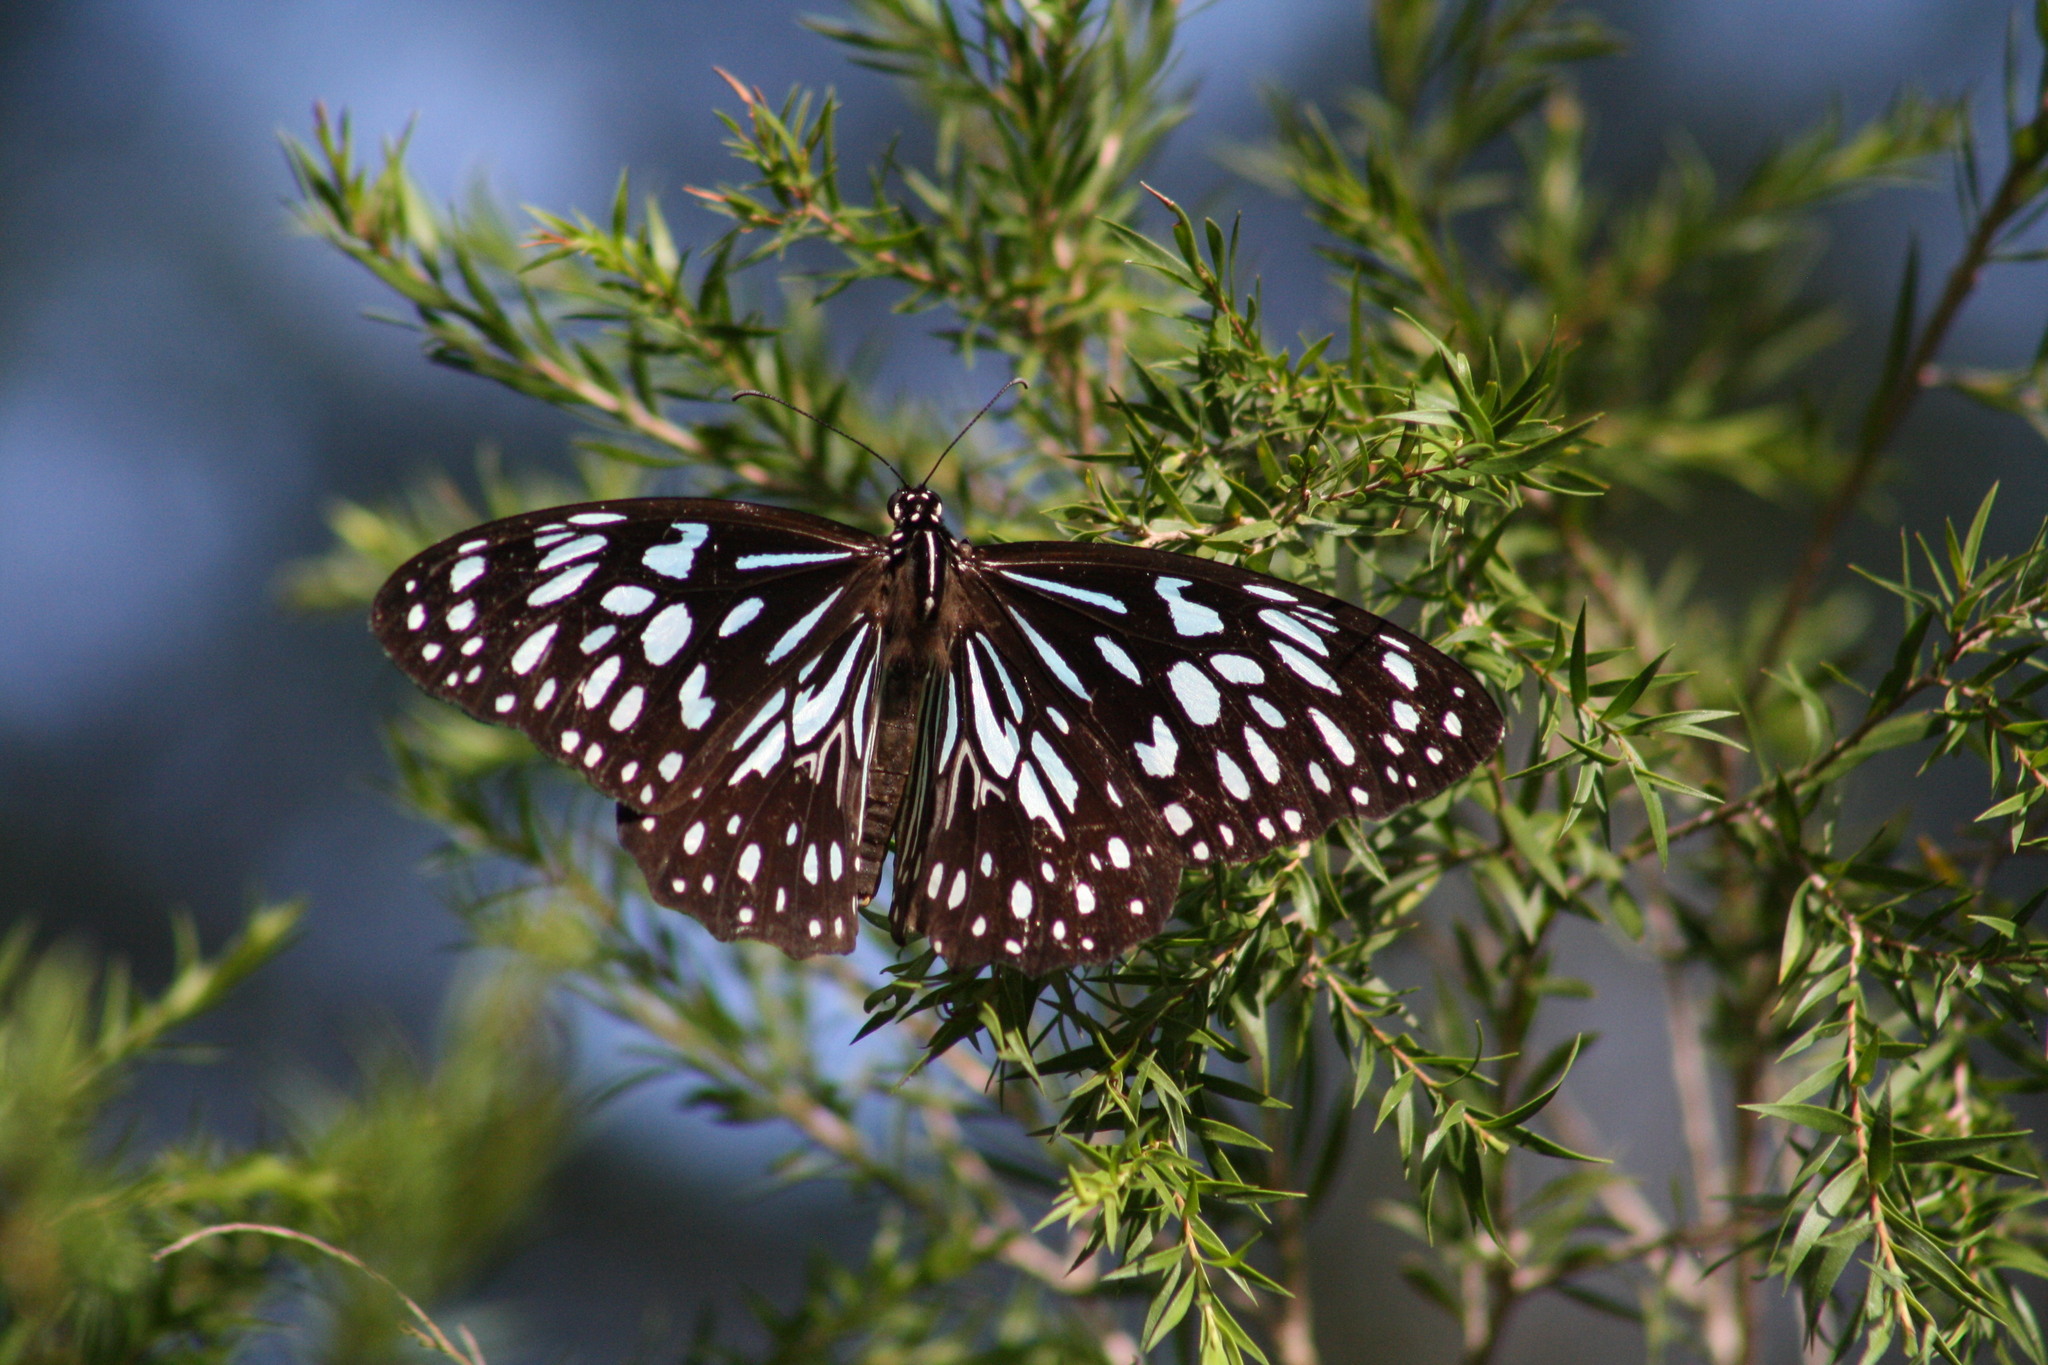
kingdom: Animalia
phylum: Arthropoda
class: Insecta
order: Lepidoptera
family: Nymphalidae
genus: Tirumala
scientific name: Tirumala hamata
